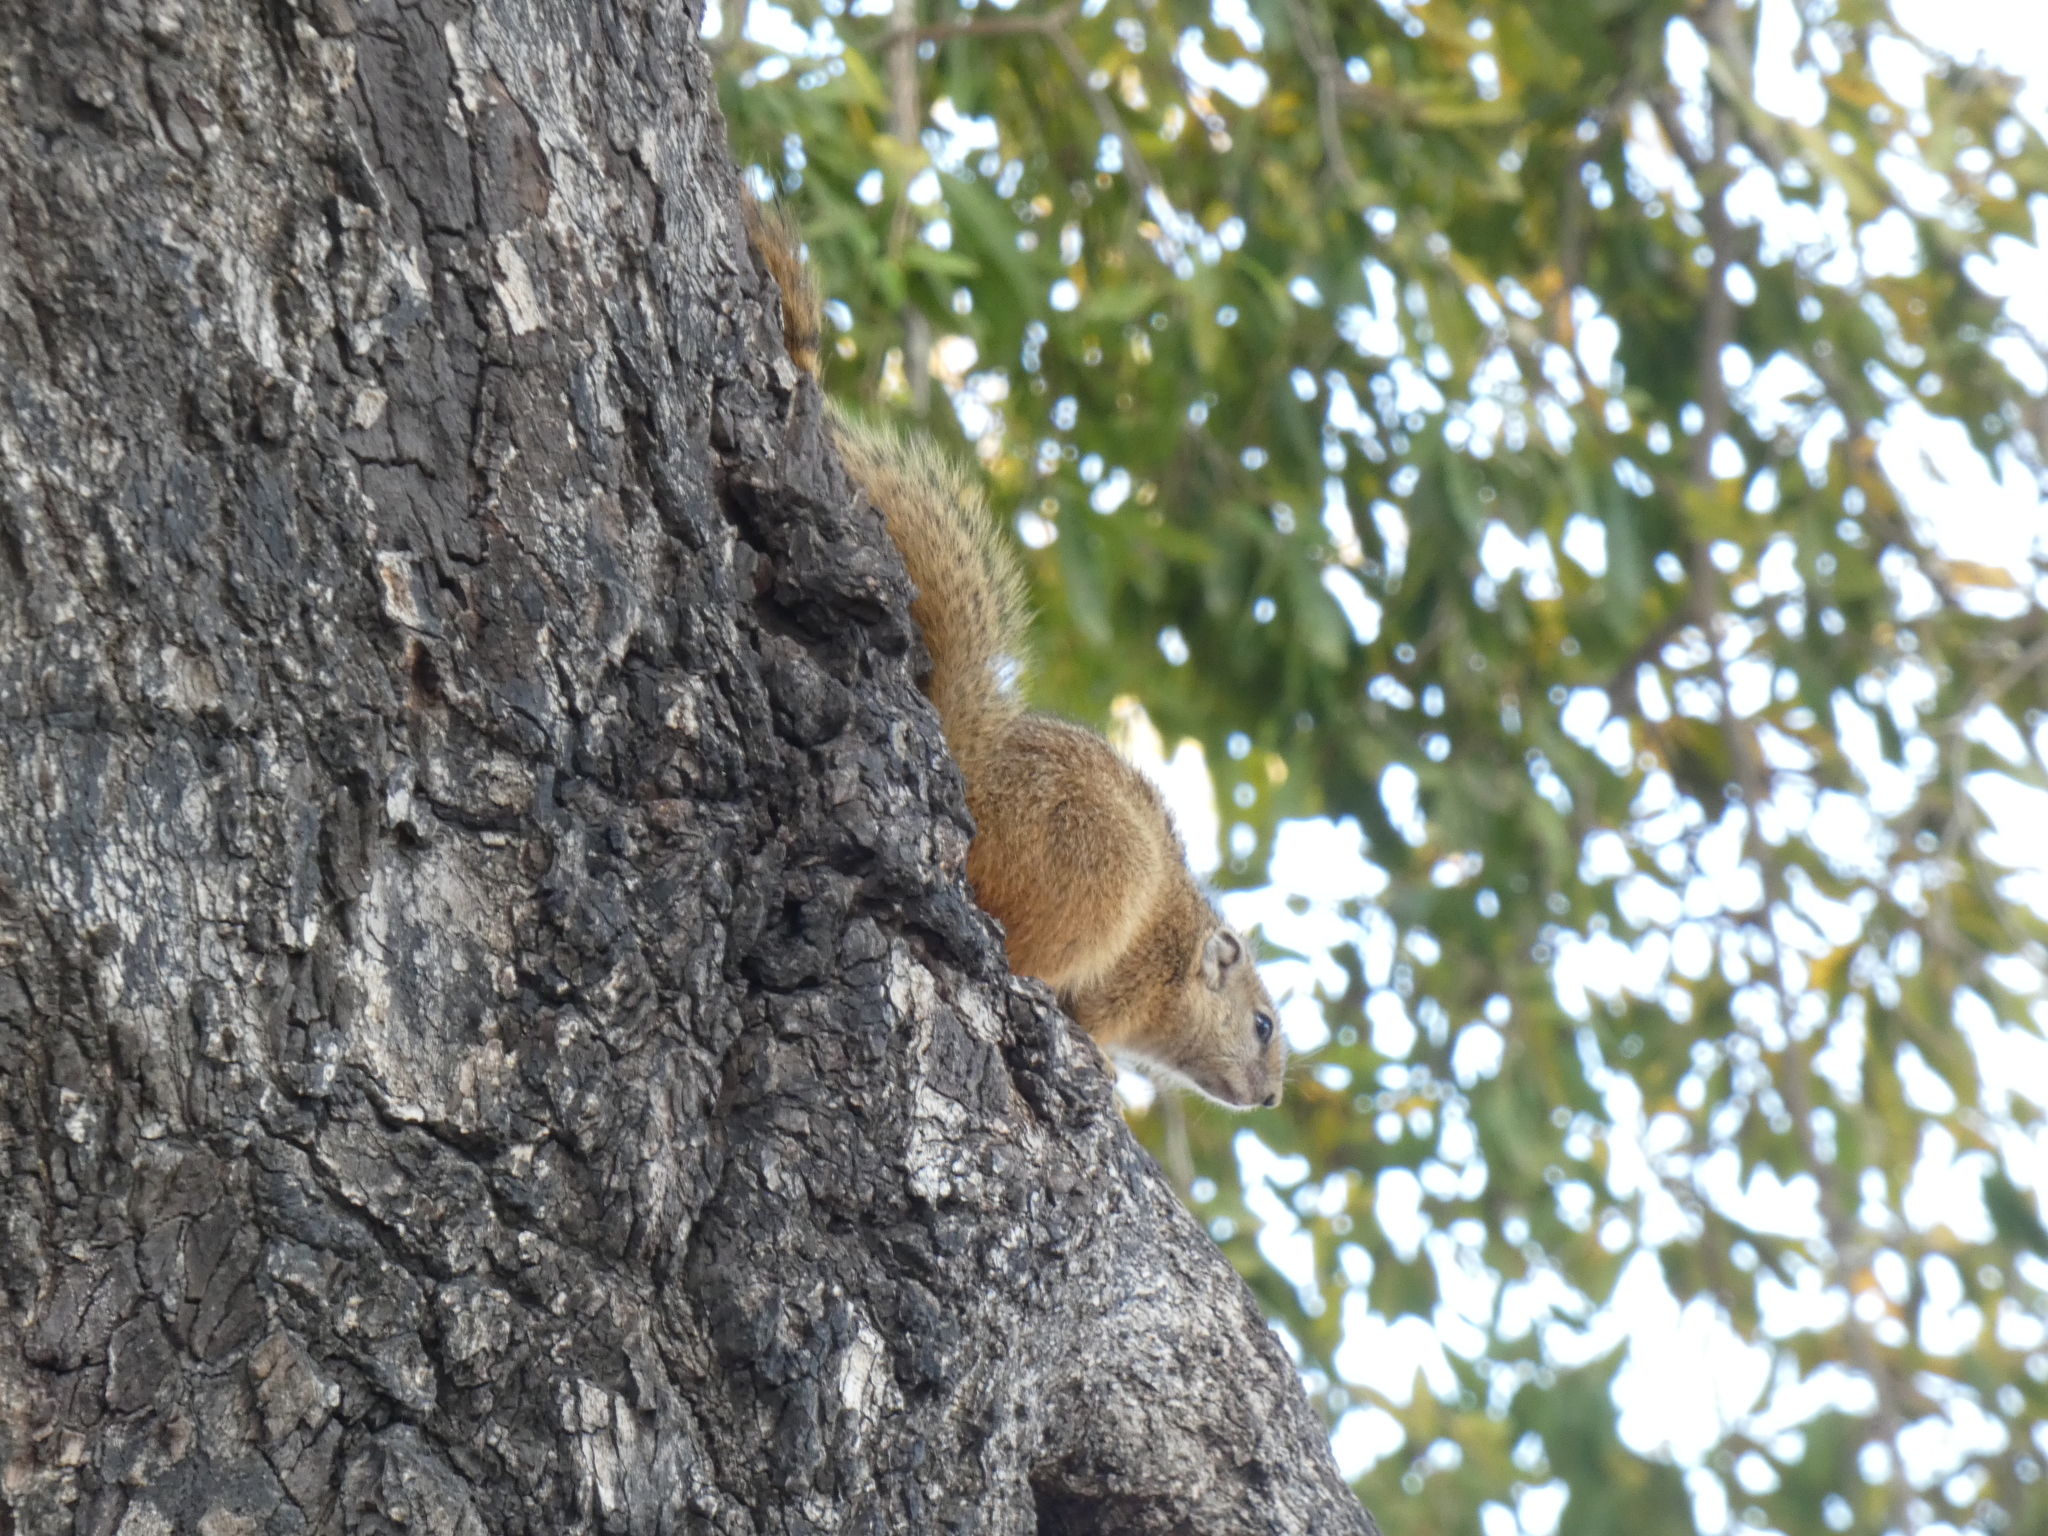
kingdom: Animalia
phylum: Chordata
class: Mammalia
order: Rodentia
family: Sciuridae
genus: Paraxerus
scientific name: Paraxerus cepapi
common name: Smith's bush squirrel
